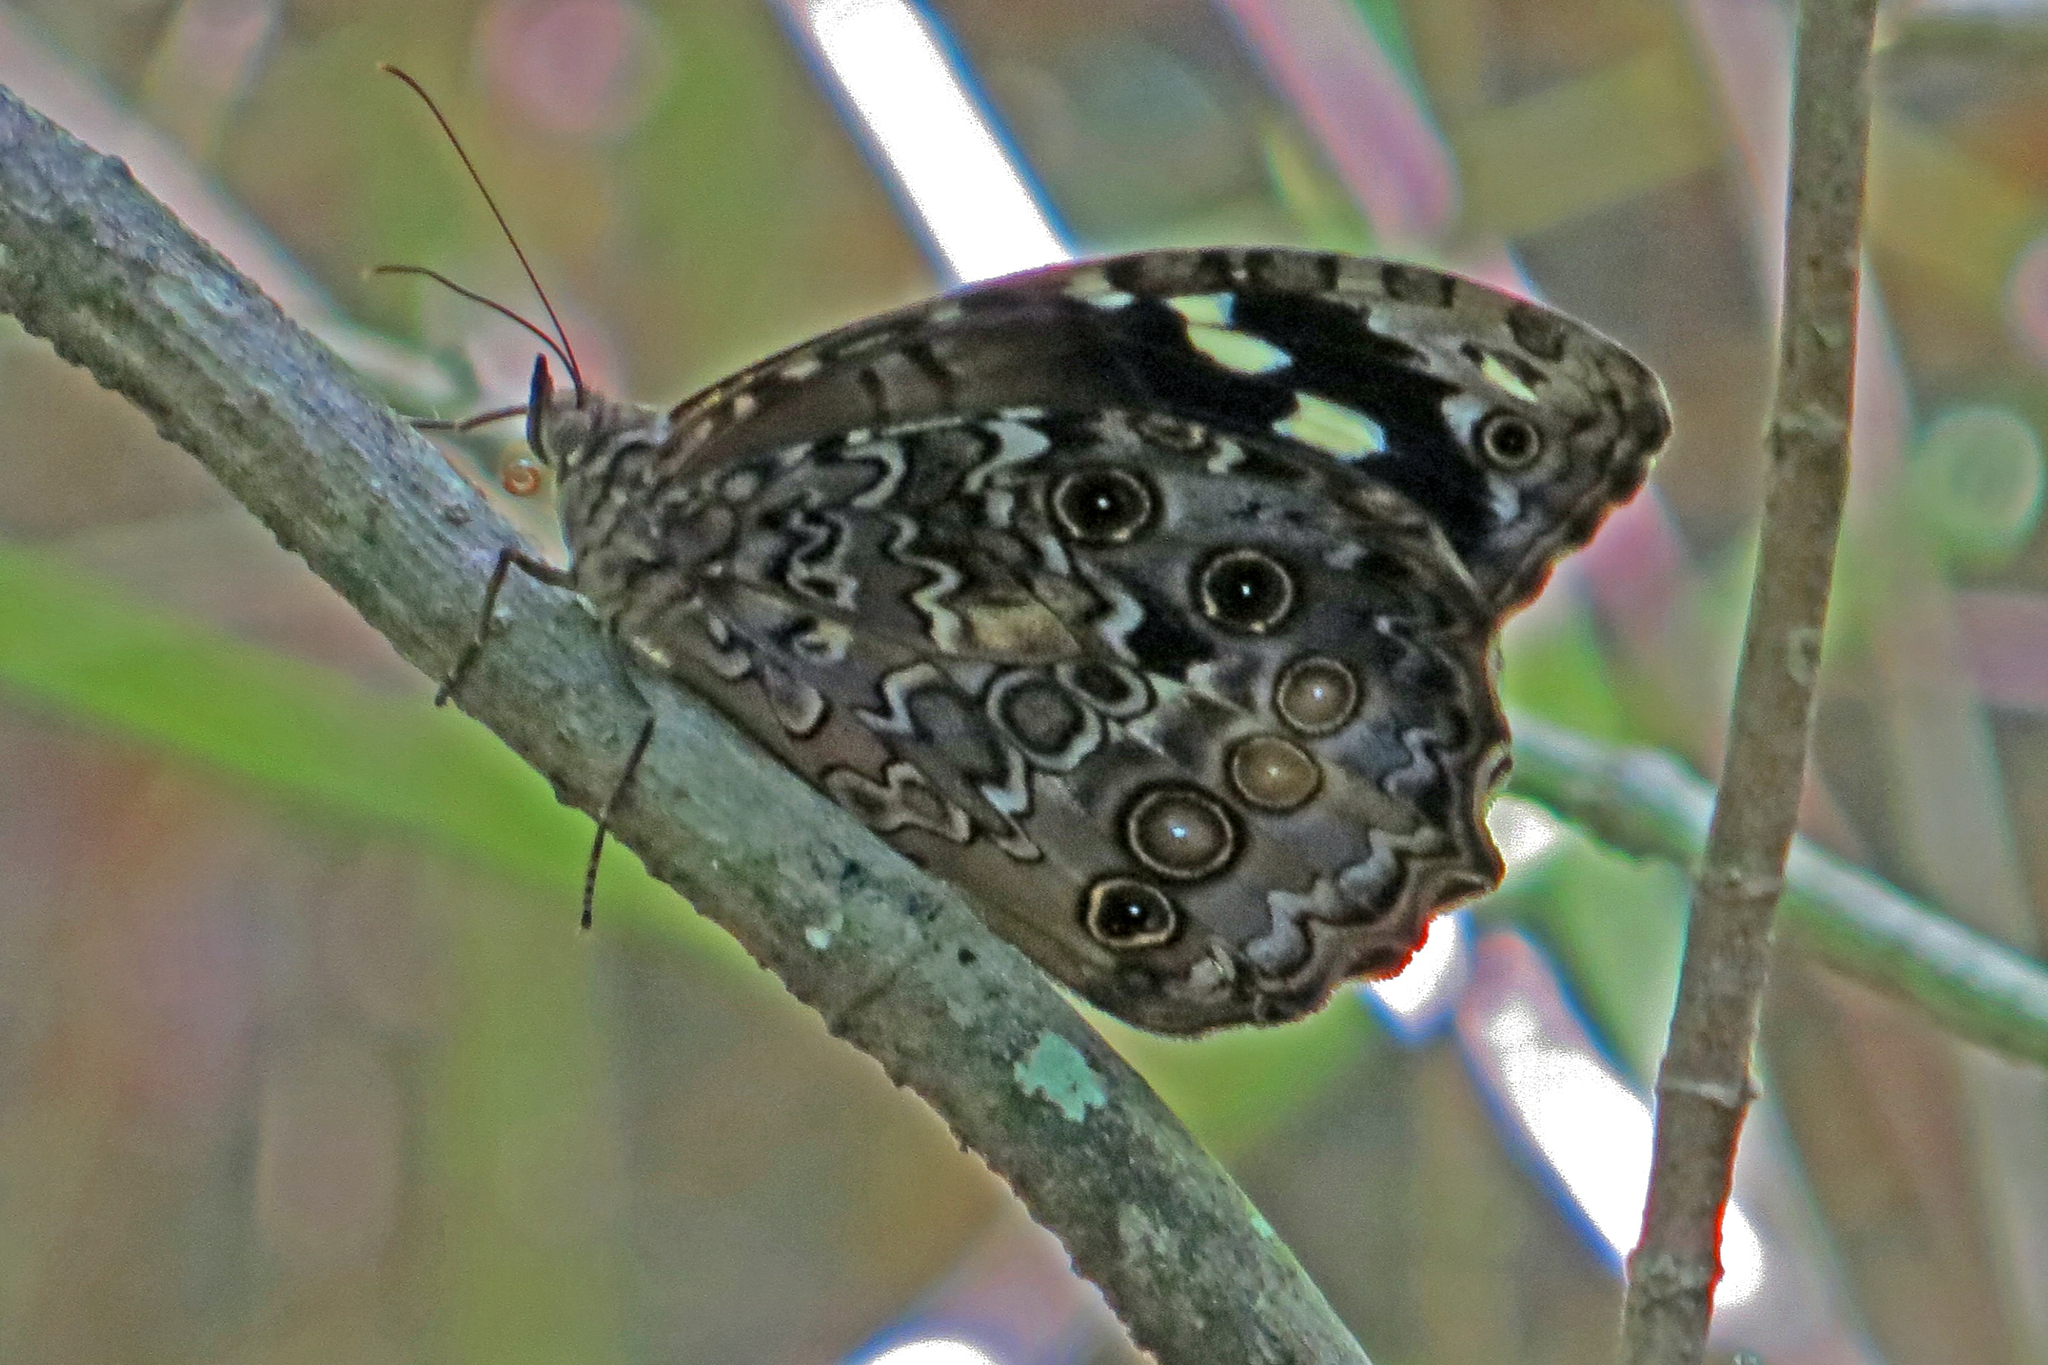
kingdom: Animalia
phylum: Arthropoda
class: Insecta
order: Lepidoptera
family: Nymphalidae
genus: Manataria
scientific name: Manataria maculata
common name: White-spotted satyr
